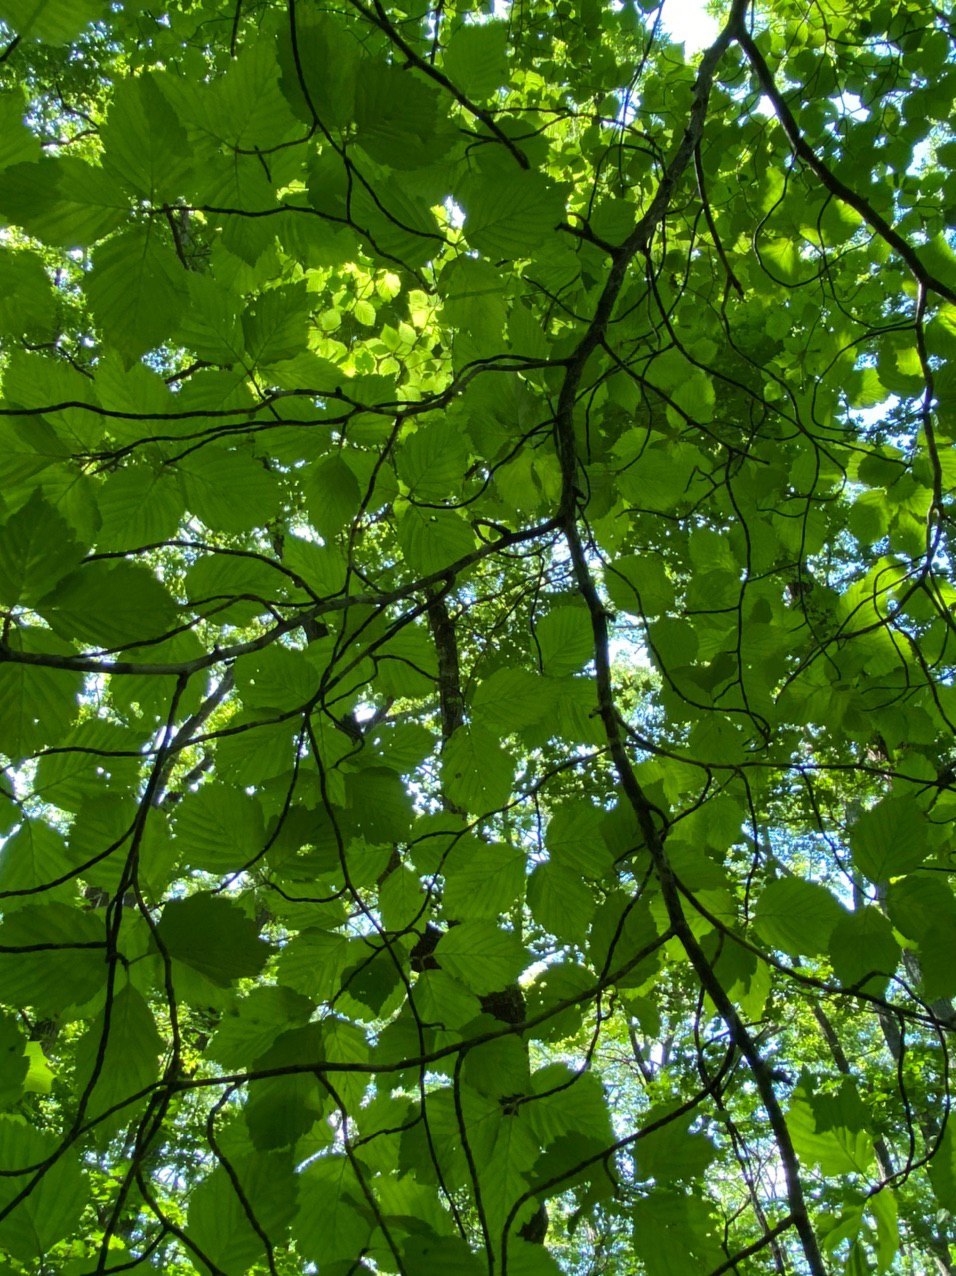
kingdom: Plantae
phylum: Tracheophyta
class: Magnoliopsida
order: Rosales
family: Rosaceae
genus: Sorbus
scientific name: Sorbus alnifolia
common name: Mountain-ash
